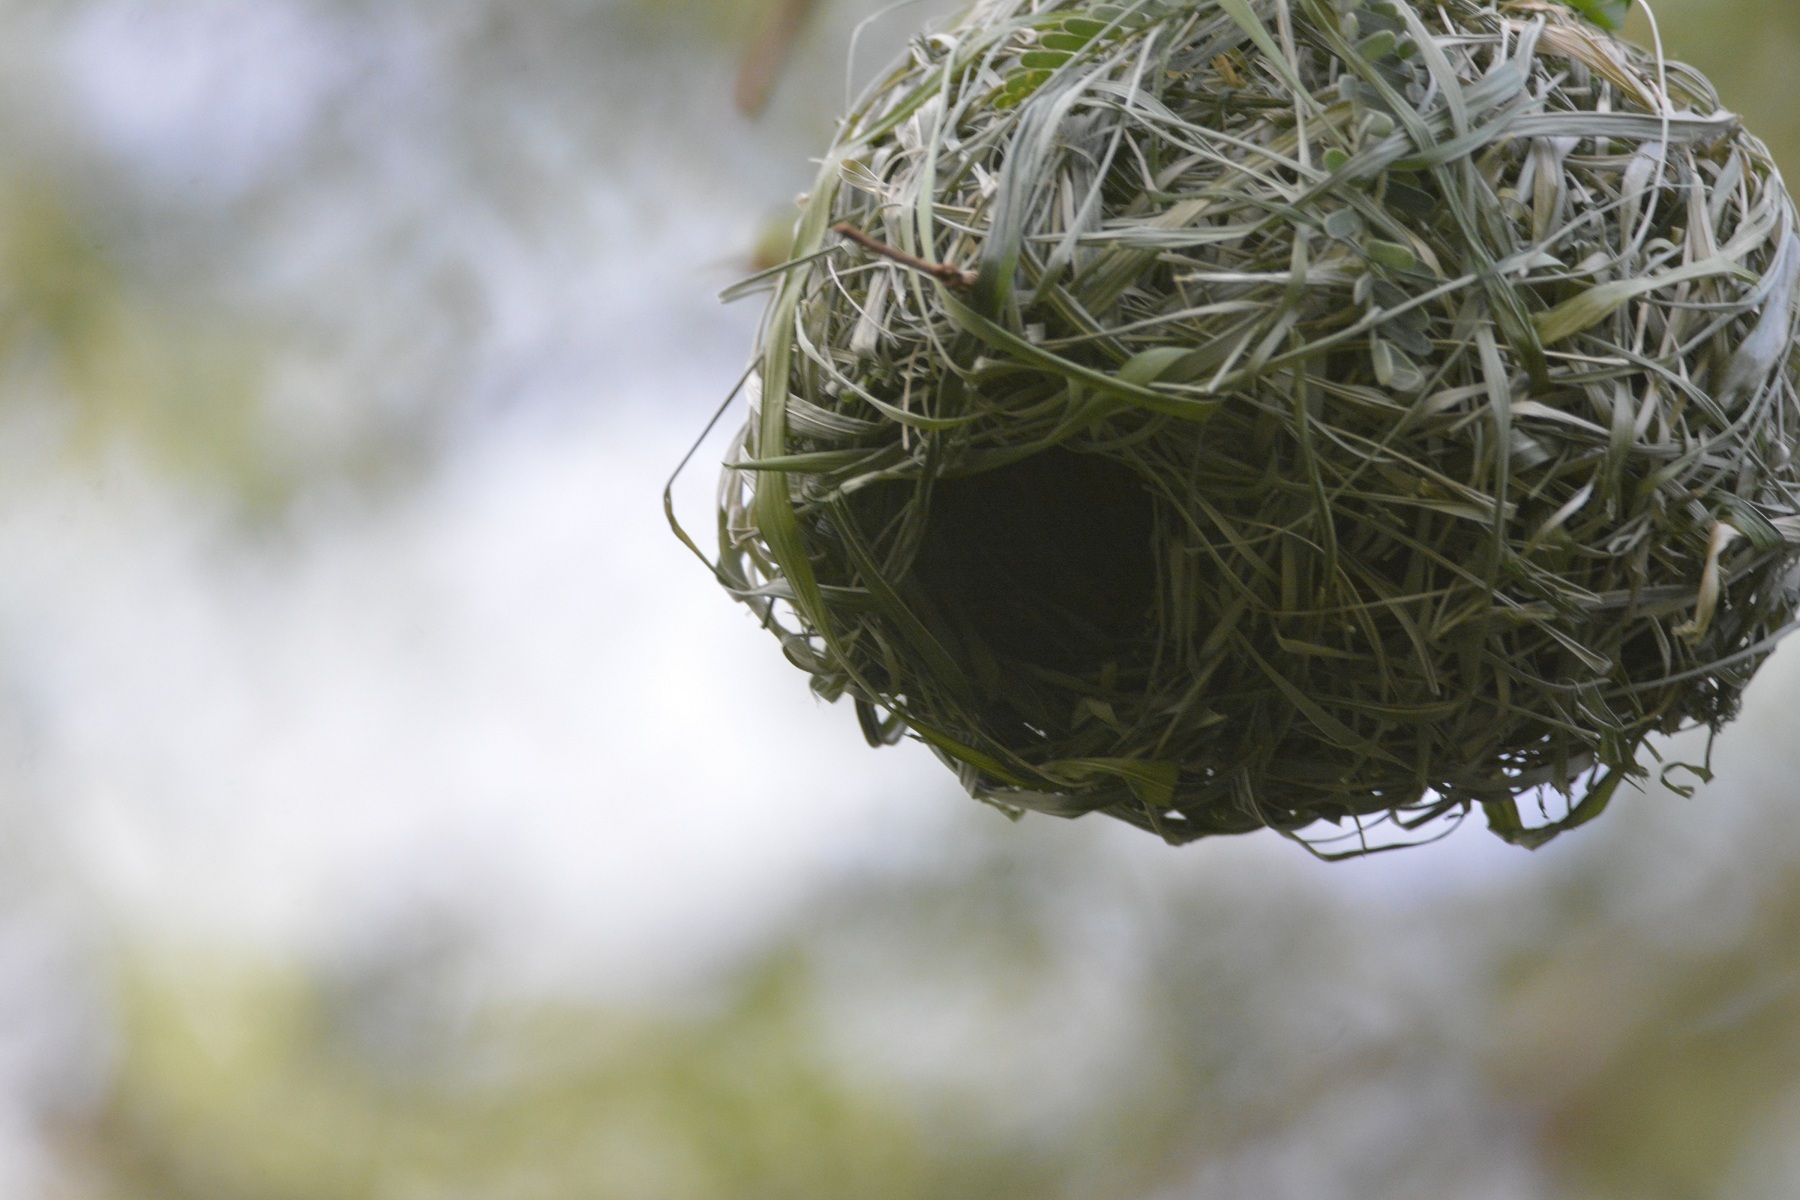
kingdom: Animalia
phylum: Chordata
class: Aves
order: Passeriformes
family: Ploceidae
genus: Ploceus
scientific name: Ploceus vitellinus
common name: Vitelline masked weaver
